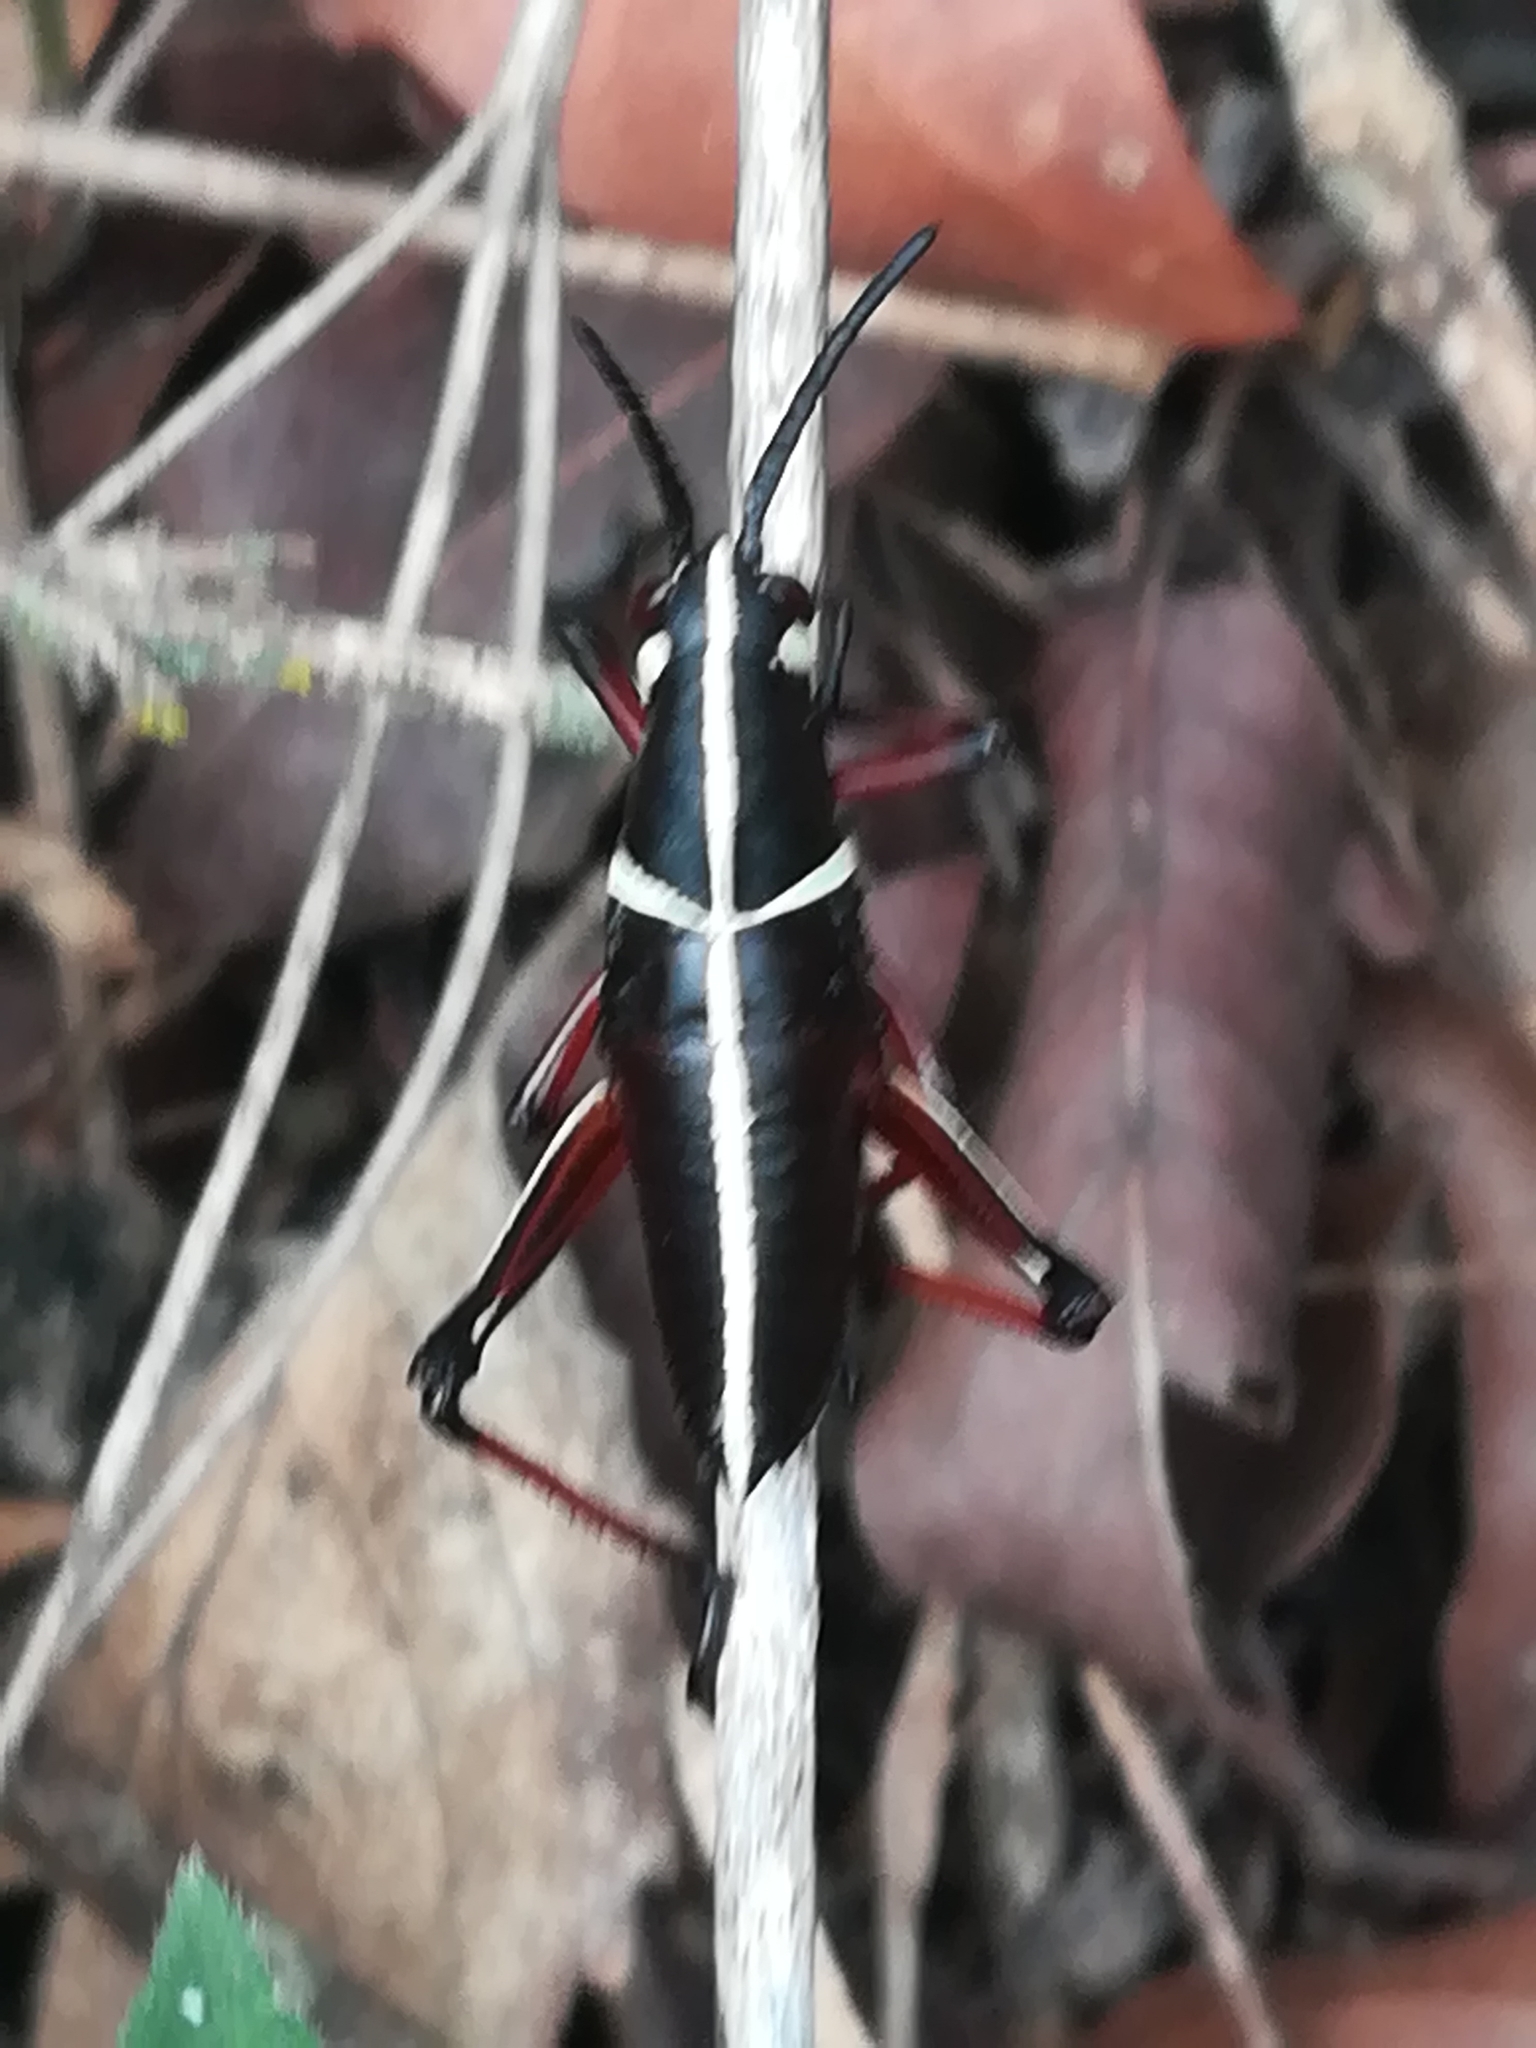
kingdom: Animalia
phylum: Arthropoda
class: Insecta
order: Orthoptera
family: Romaleidae
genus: Romalea
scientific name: Romalea
